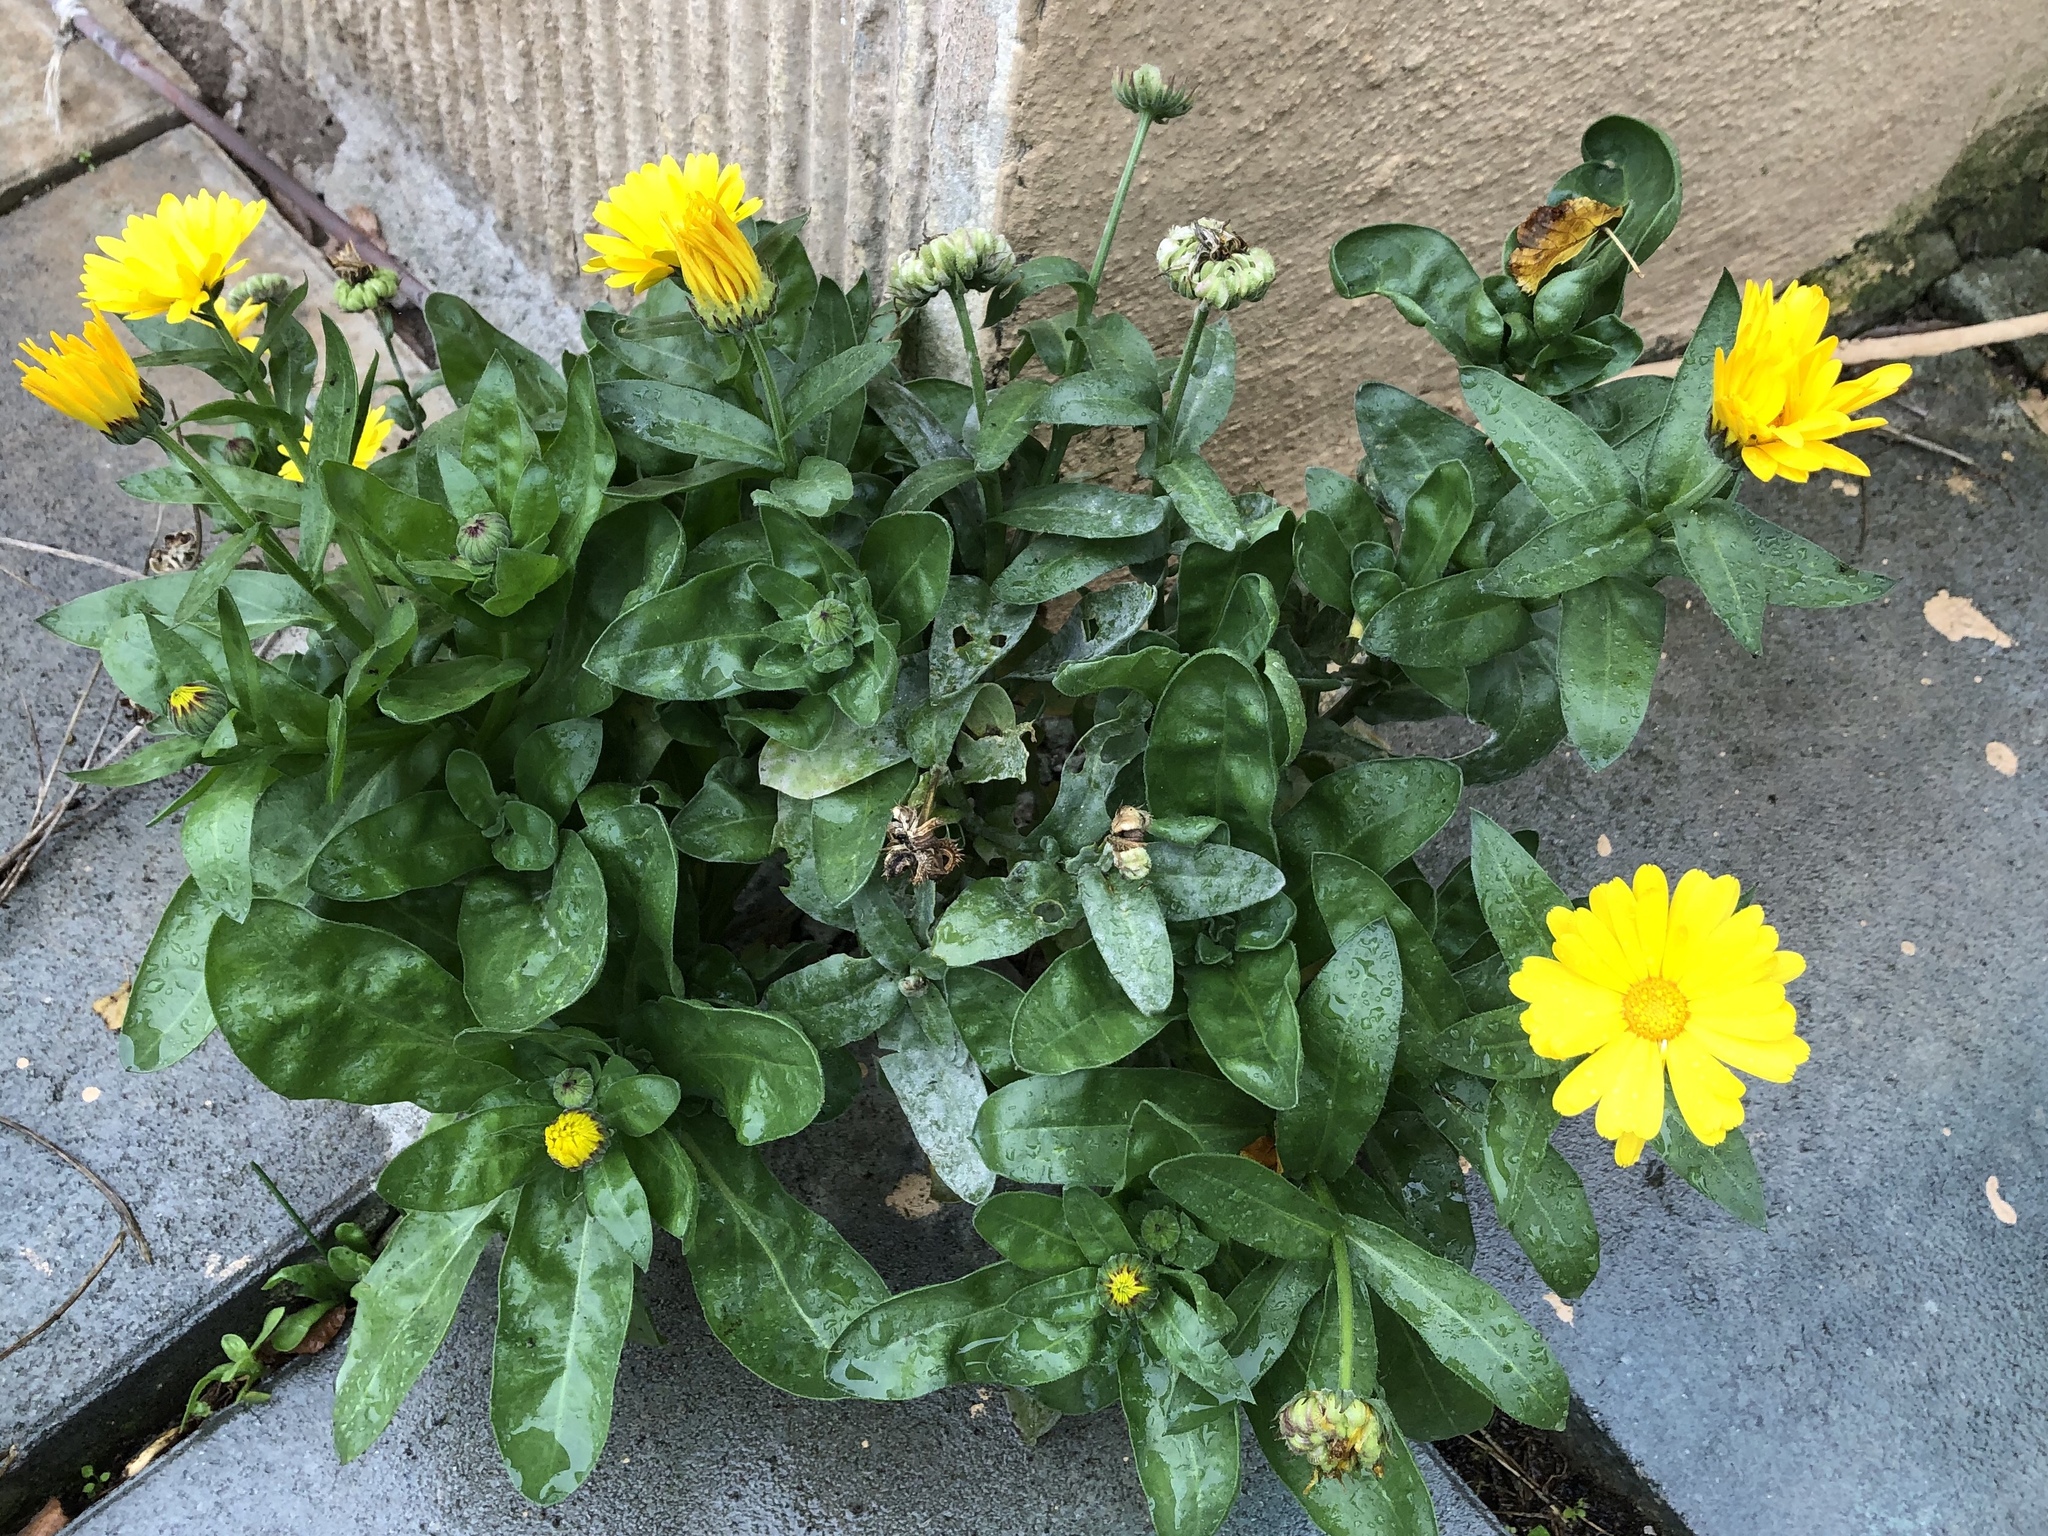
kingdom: Plantae
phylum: Tracheophyta
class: Magnoliopsida
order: Asterales
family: Asteraceae
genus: Calendula
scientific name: Calendula officinalis
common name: Pot marigold
